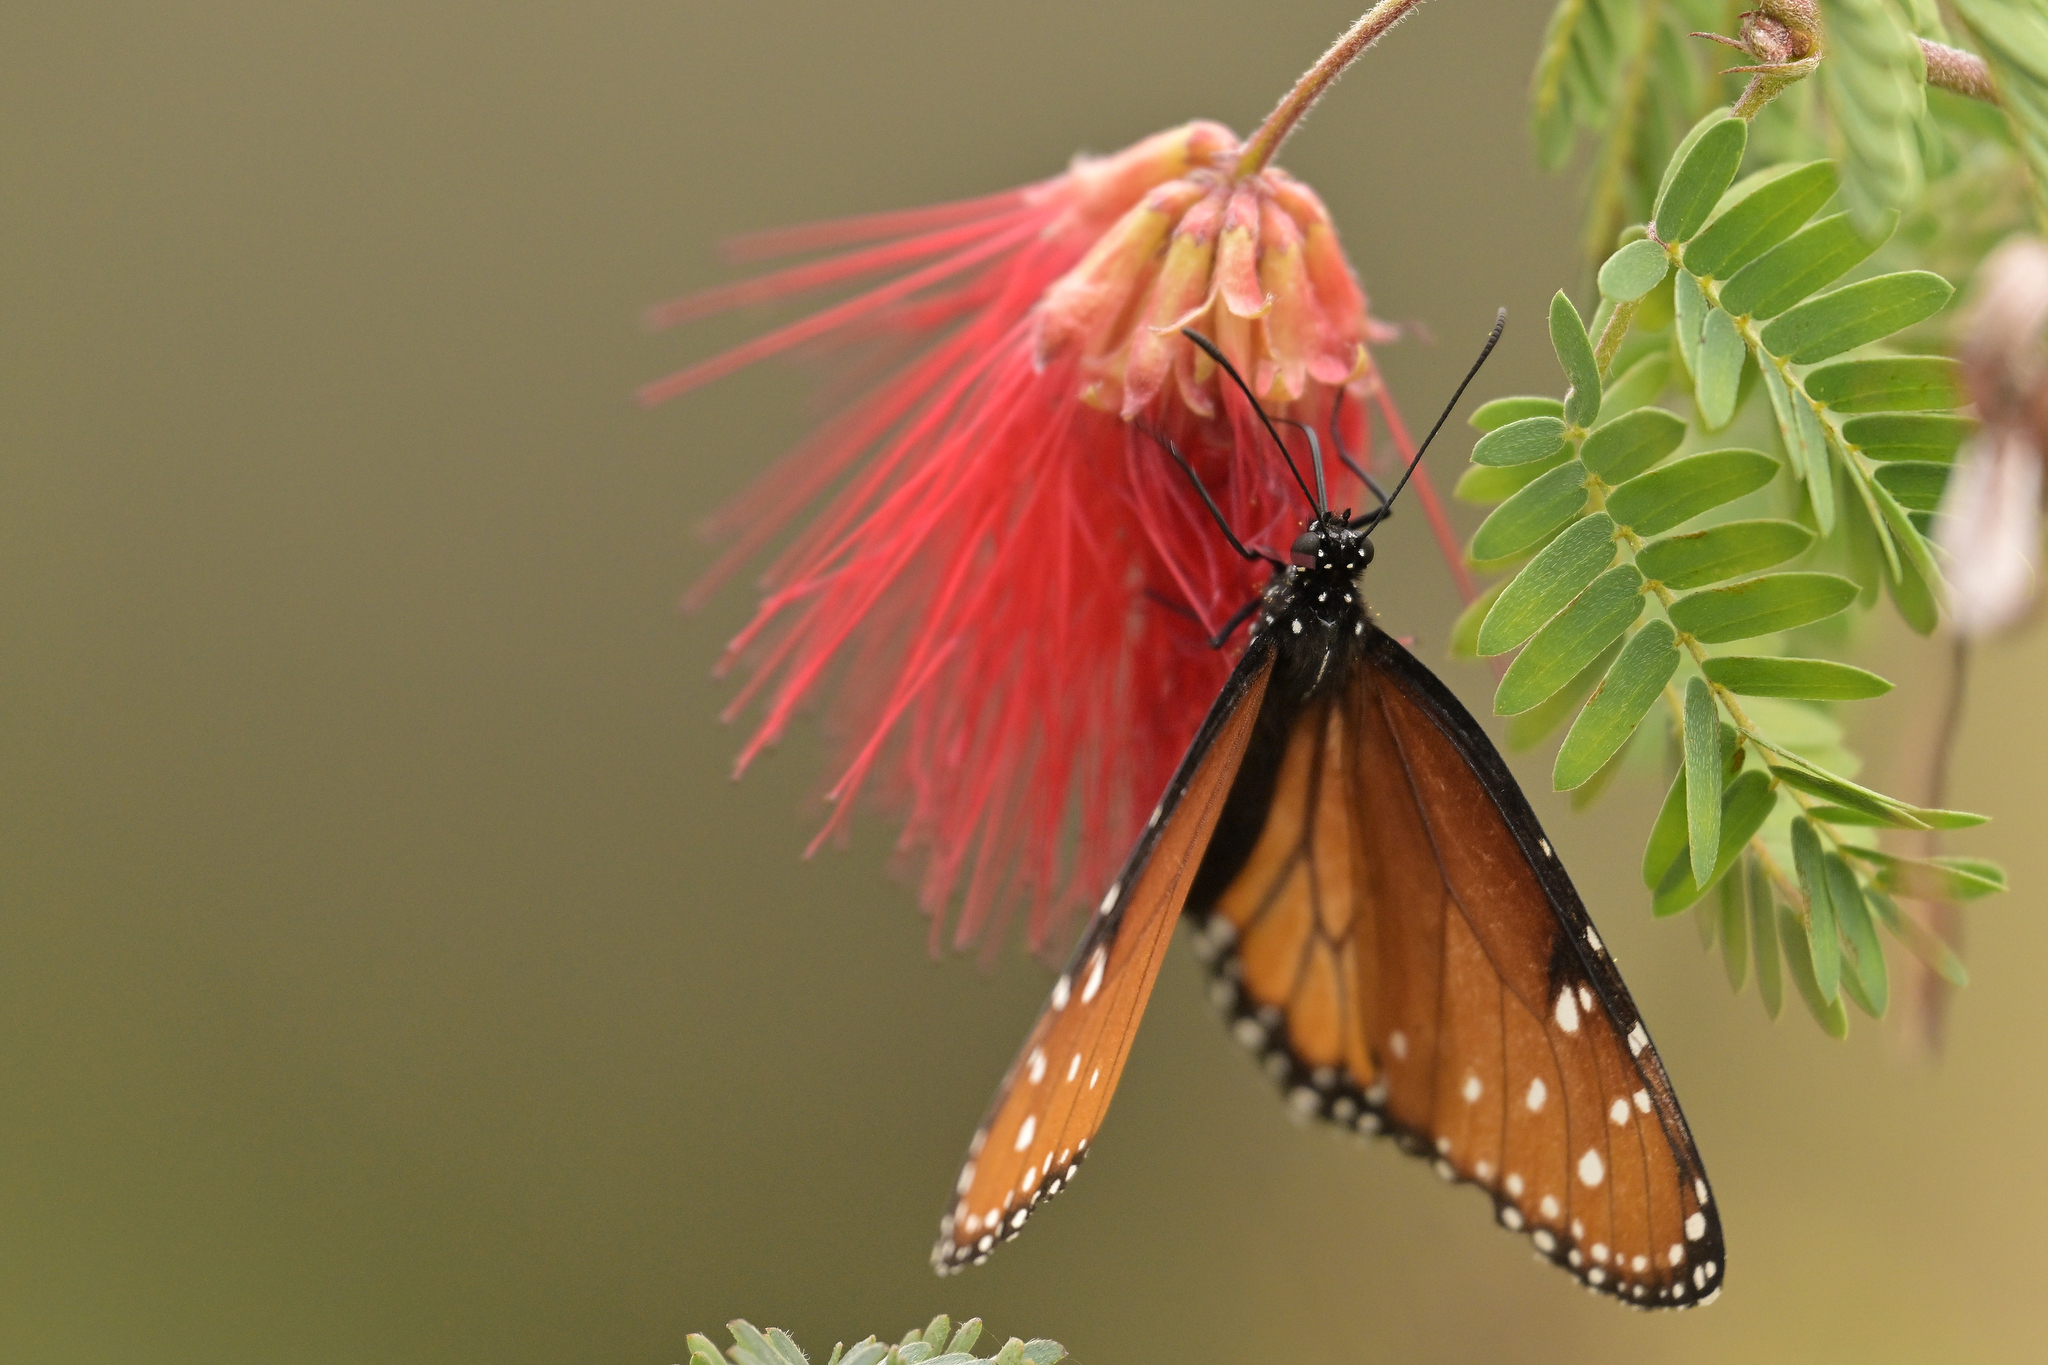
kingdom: Animalia
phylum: Arthropoda
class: Insecta
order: Lepidoptera
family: Nymphalidae
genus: Danaus
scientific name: Danaus gilippus
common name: Queen
